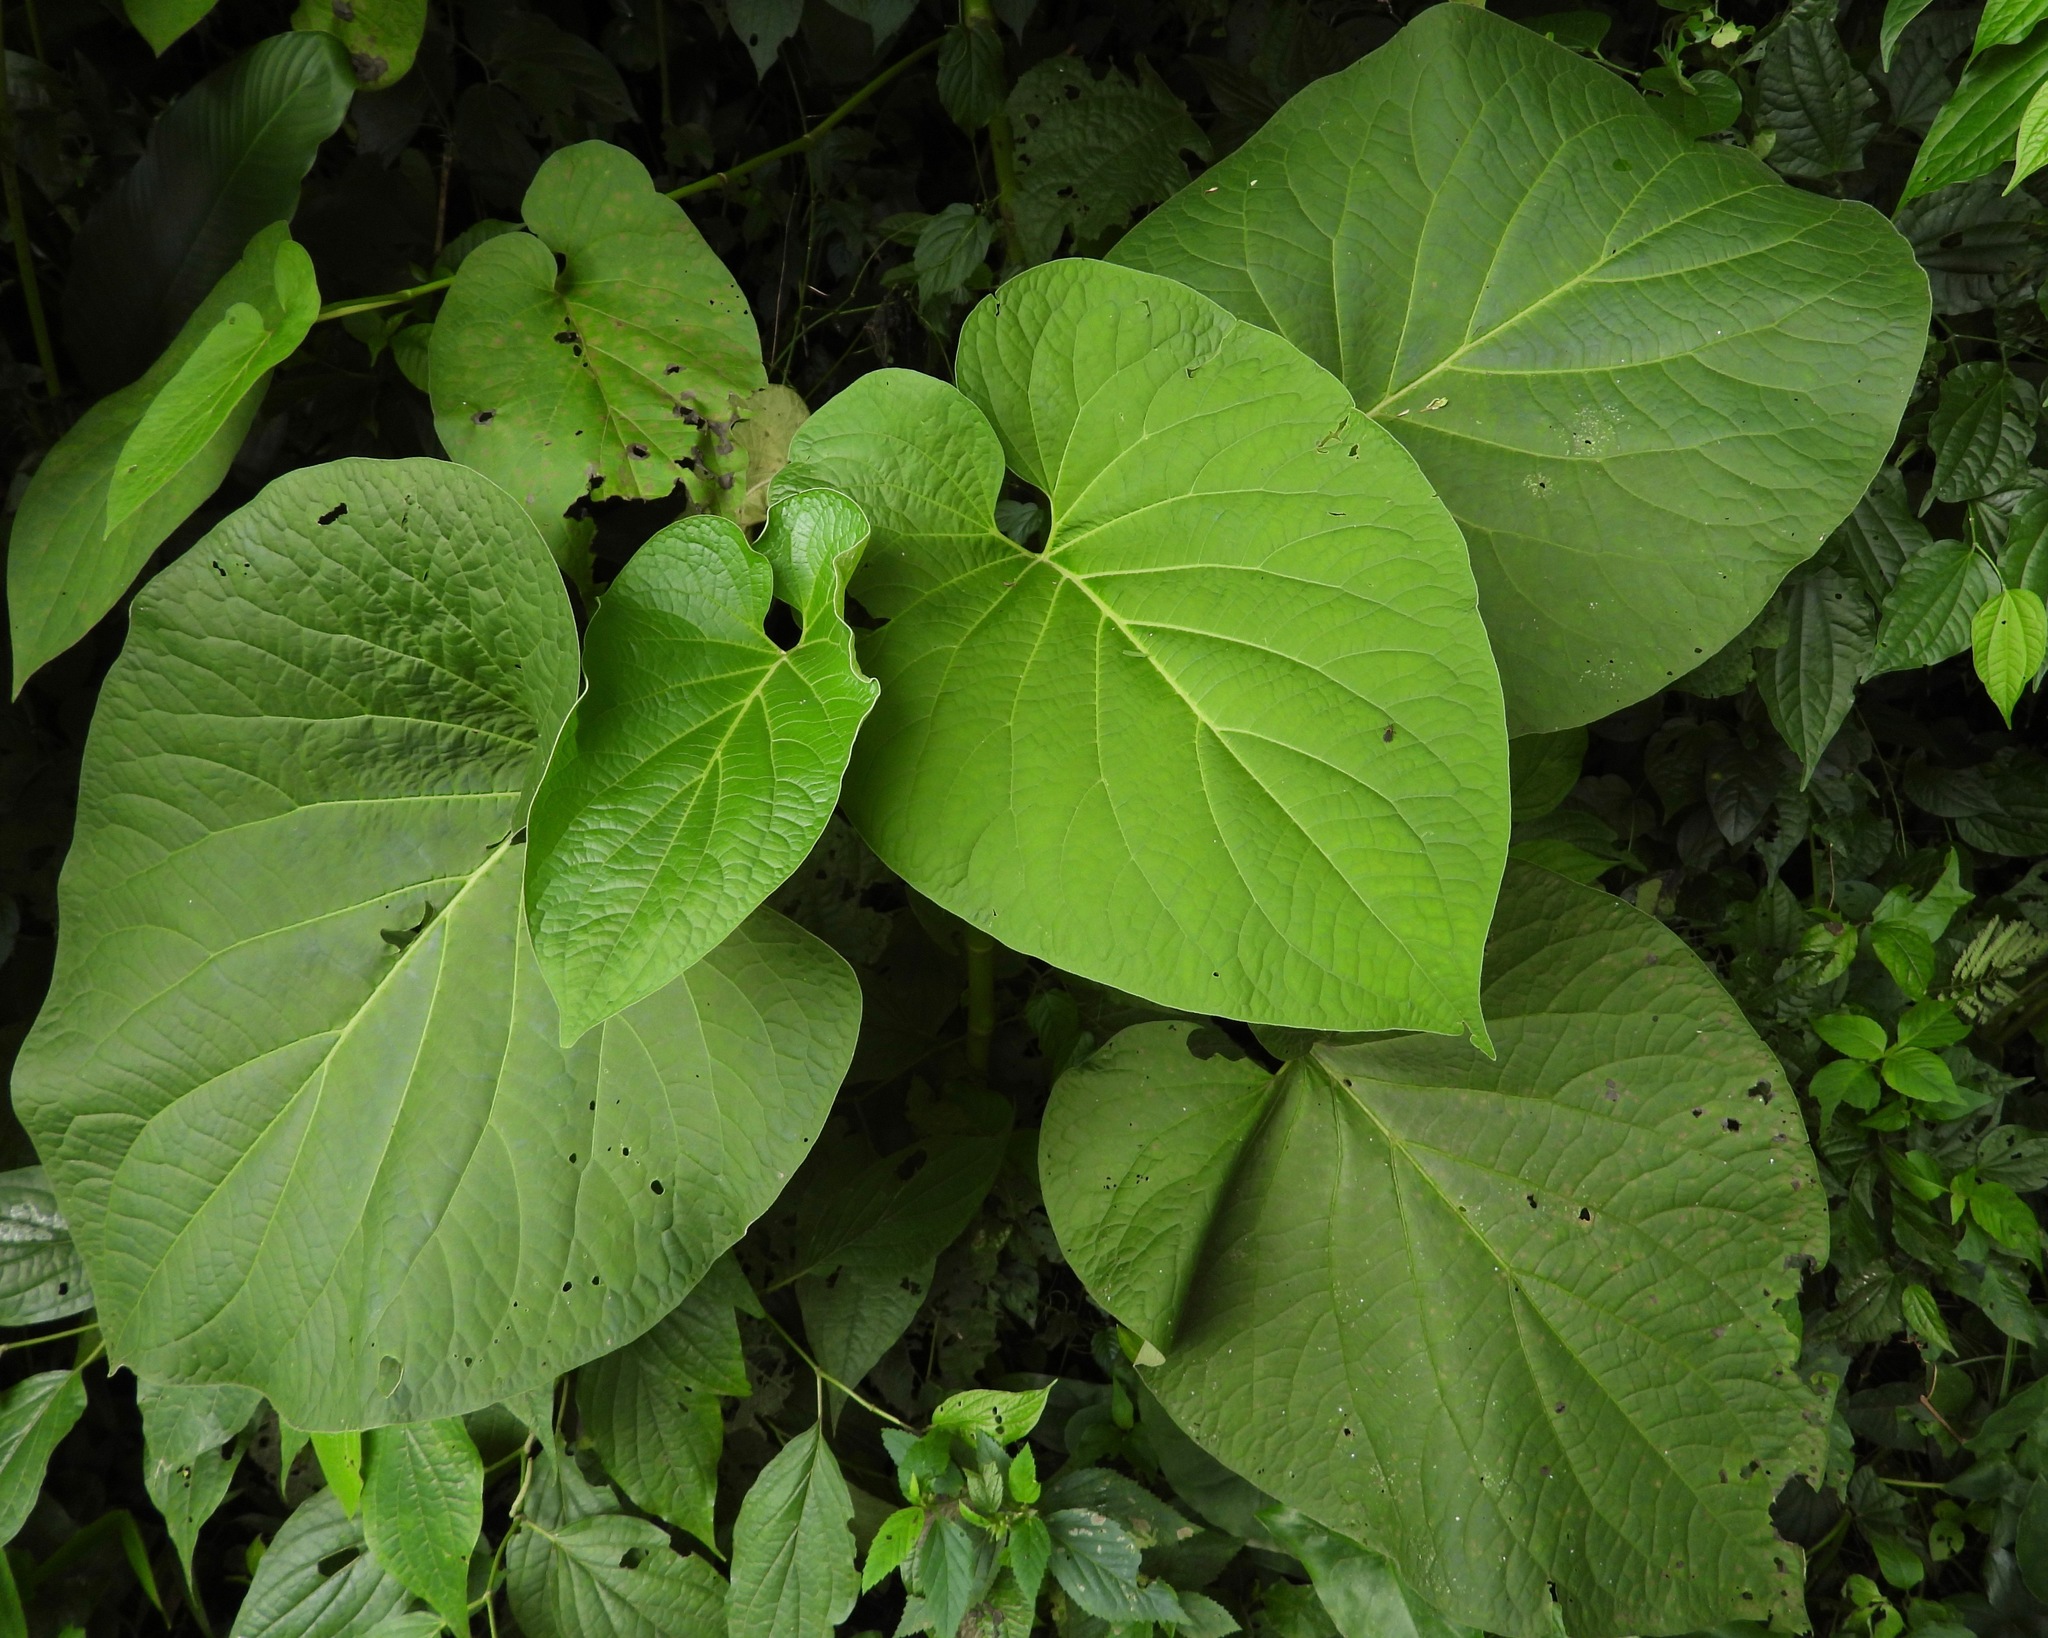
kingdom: Plantae
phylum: Tracheophyta
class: Magnoliopsida
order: Piperales
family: Piperaceae
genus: Piper
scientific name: Piper auritum
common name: Vera cruz pepper
